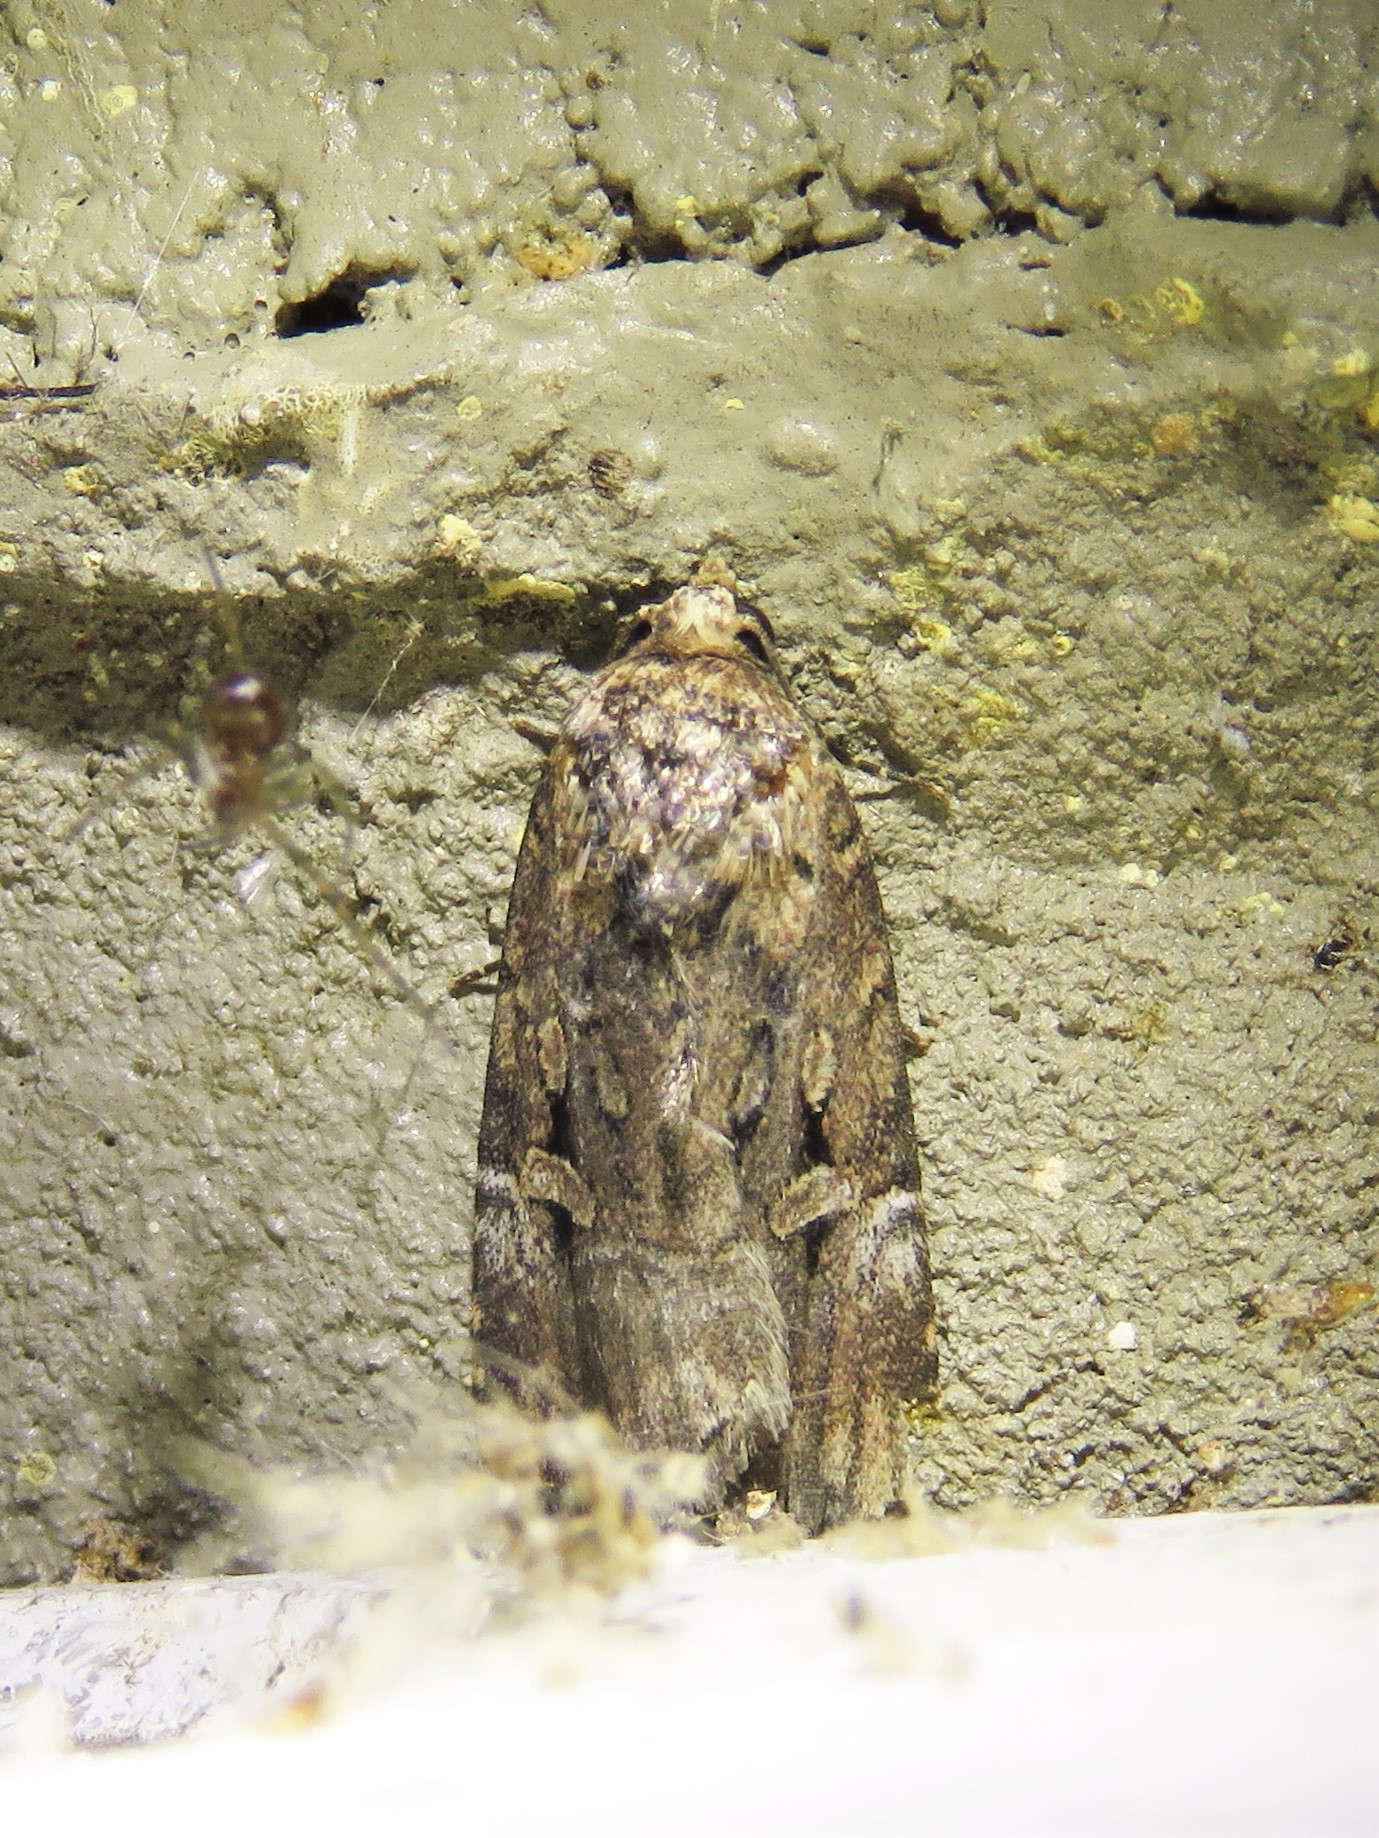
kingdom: Animalia
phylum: Arthropoda
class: Insecta
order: Lepidoptera
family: Noctuidae
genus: Elaphria
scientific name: Elaphria chalcedonia
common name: Chalcedony midget
